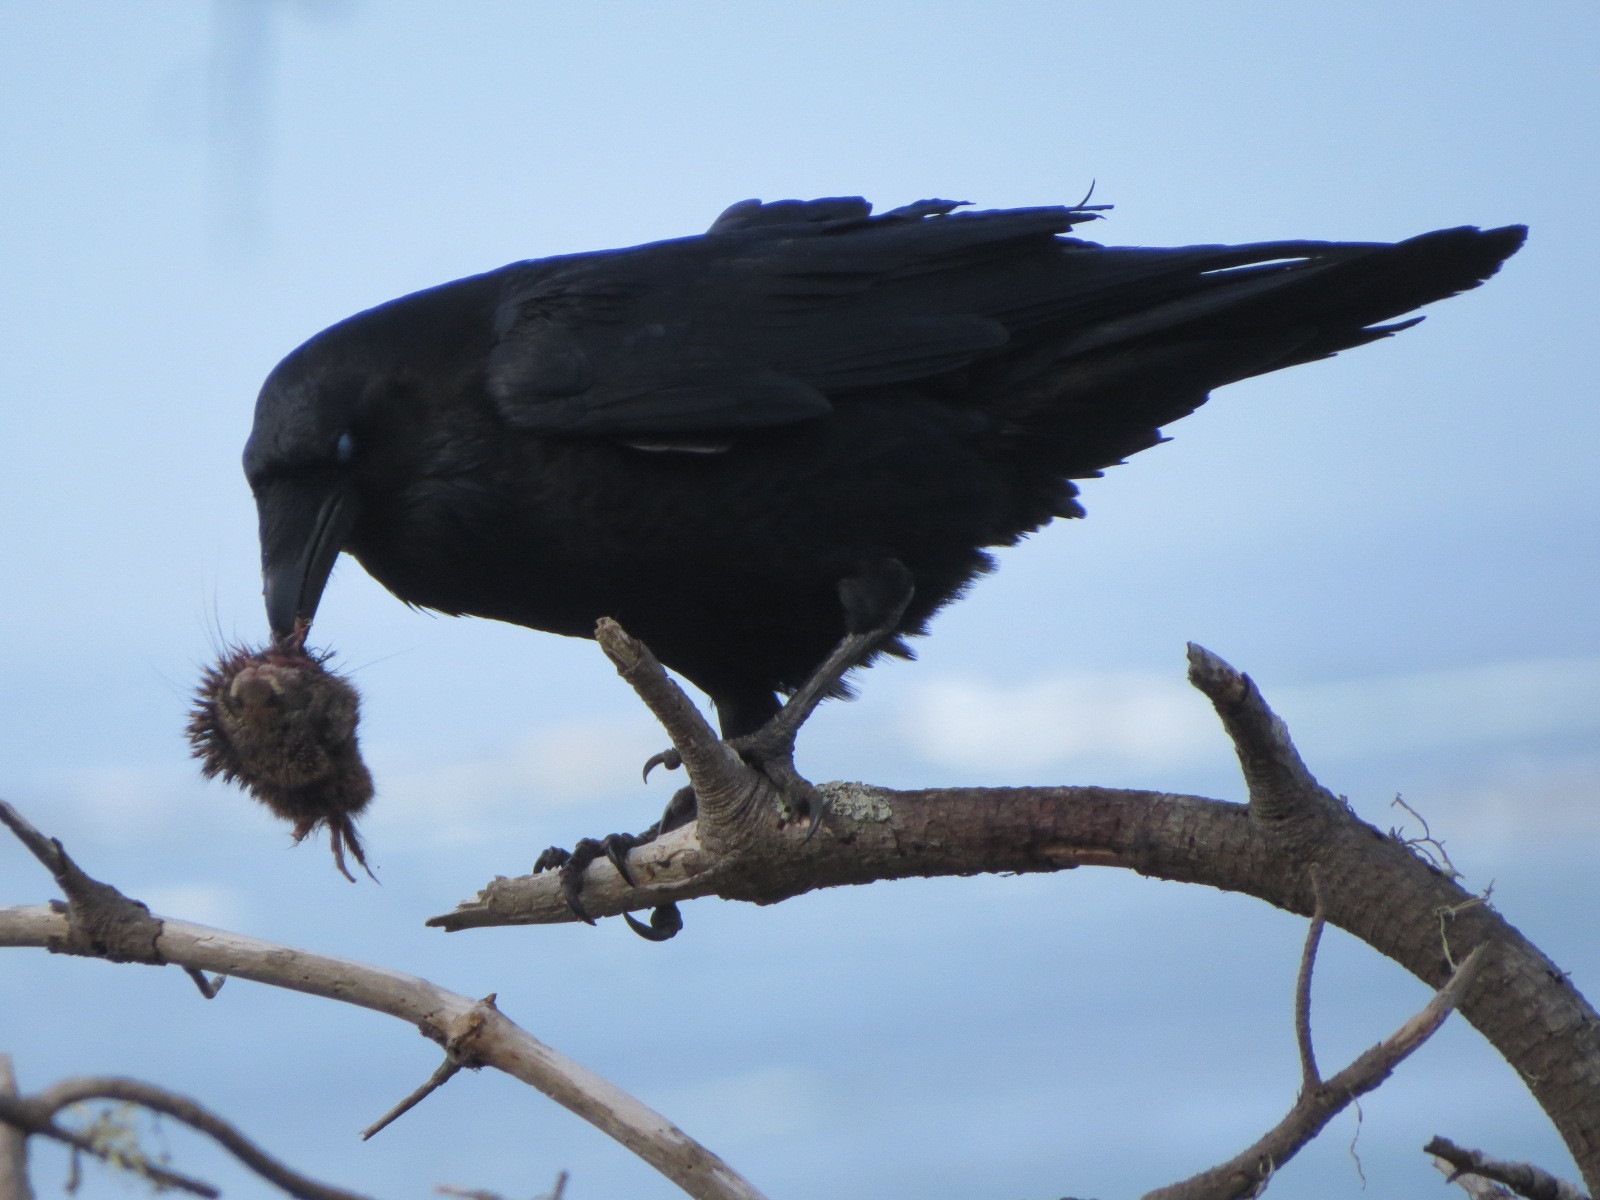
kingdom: Animalia
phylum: Chordata
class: Aves
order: Passeriformes
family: Corvidae
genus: Corvus
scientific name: Corvus corax
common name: Common raven
